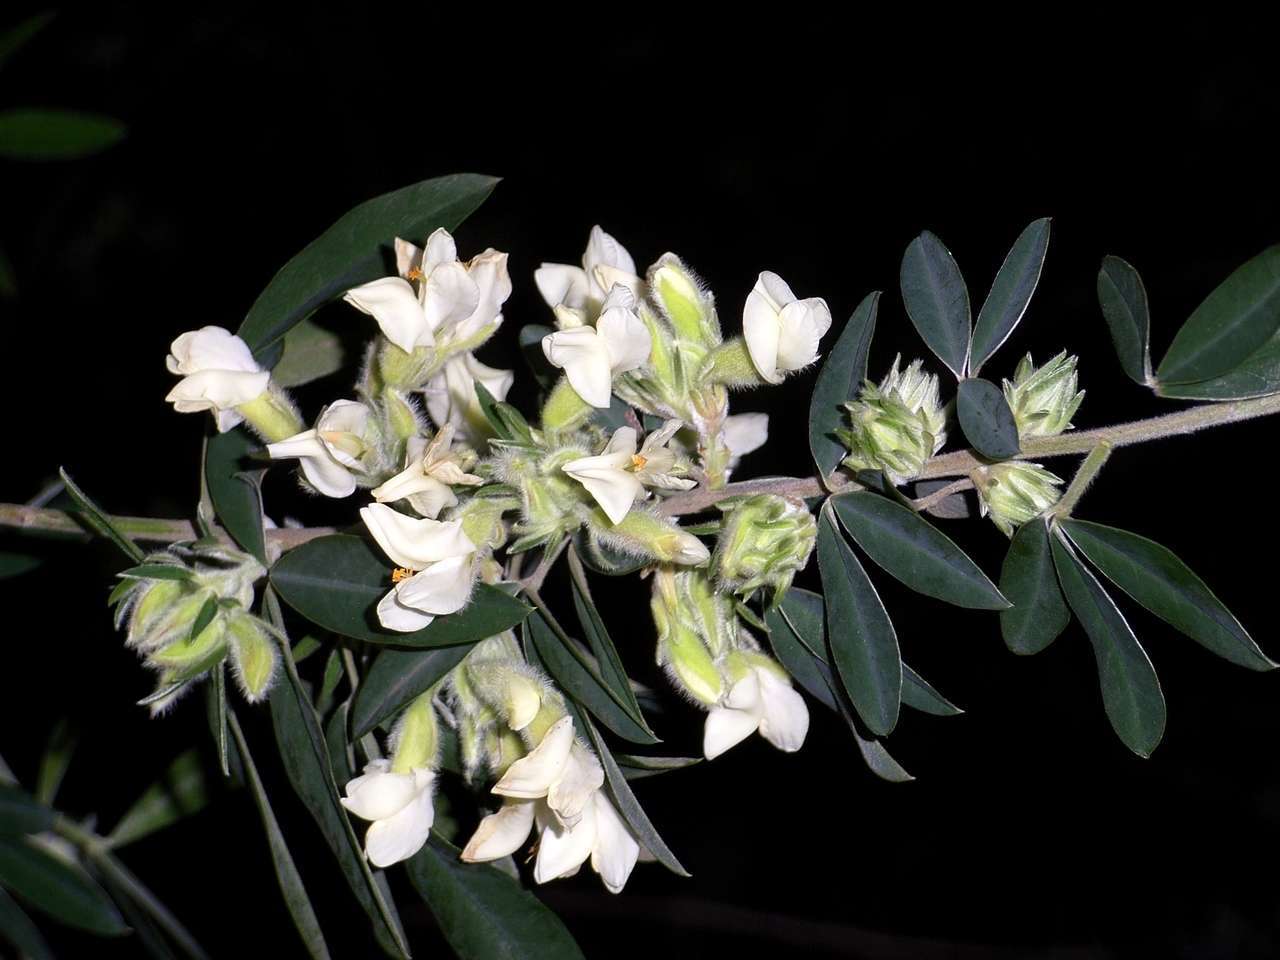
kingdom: Plantae
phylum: Tracheophyta
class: Magnoliopsida
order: Fabales
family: Fabaceae
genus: Chamaecytisus
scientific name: Chamaecytisus prolifer
